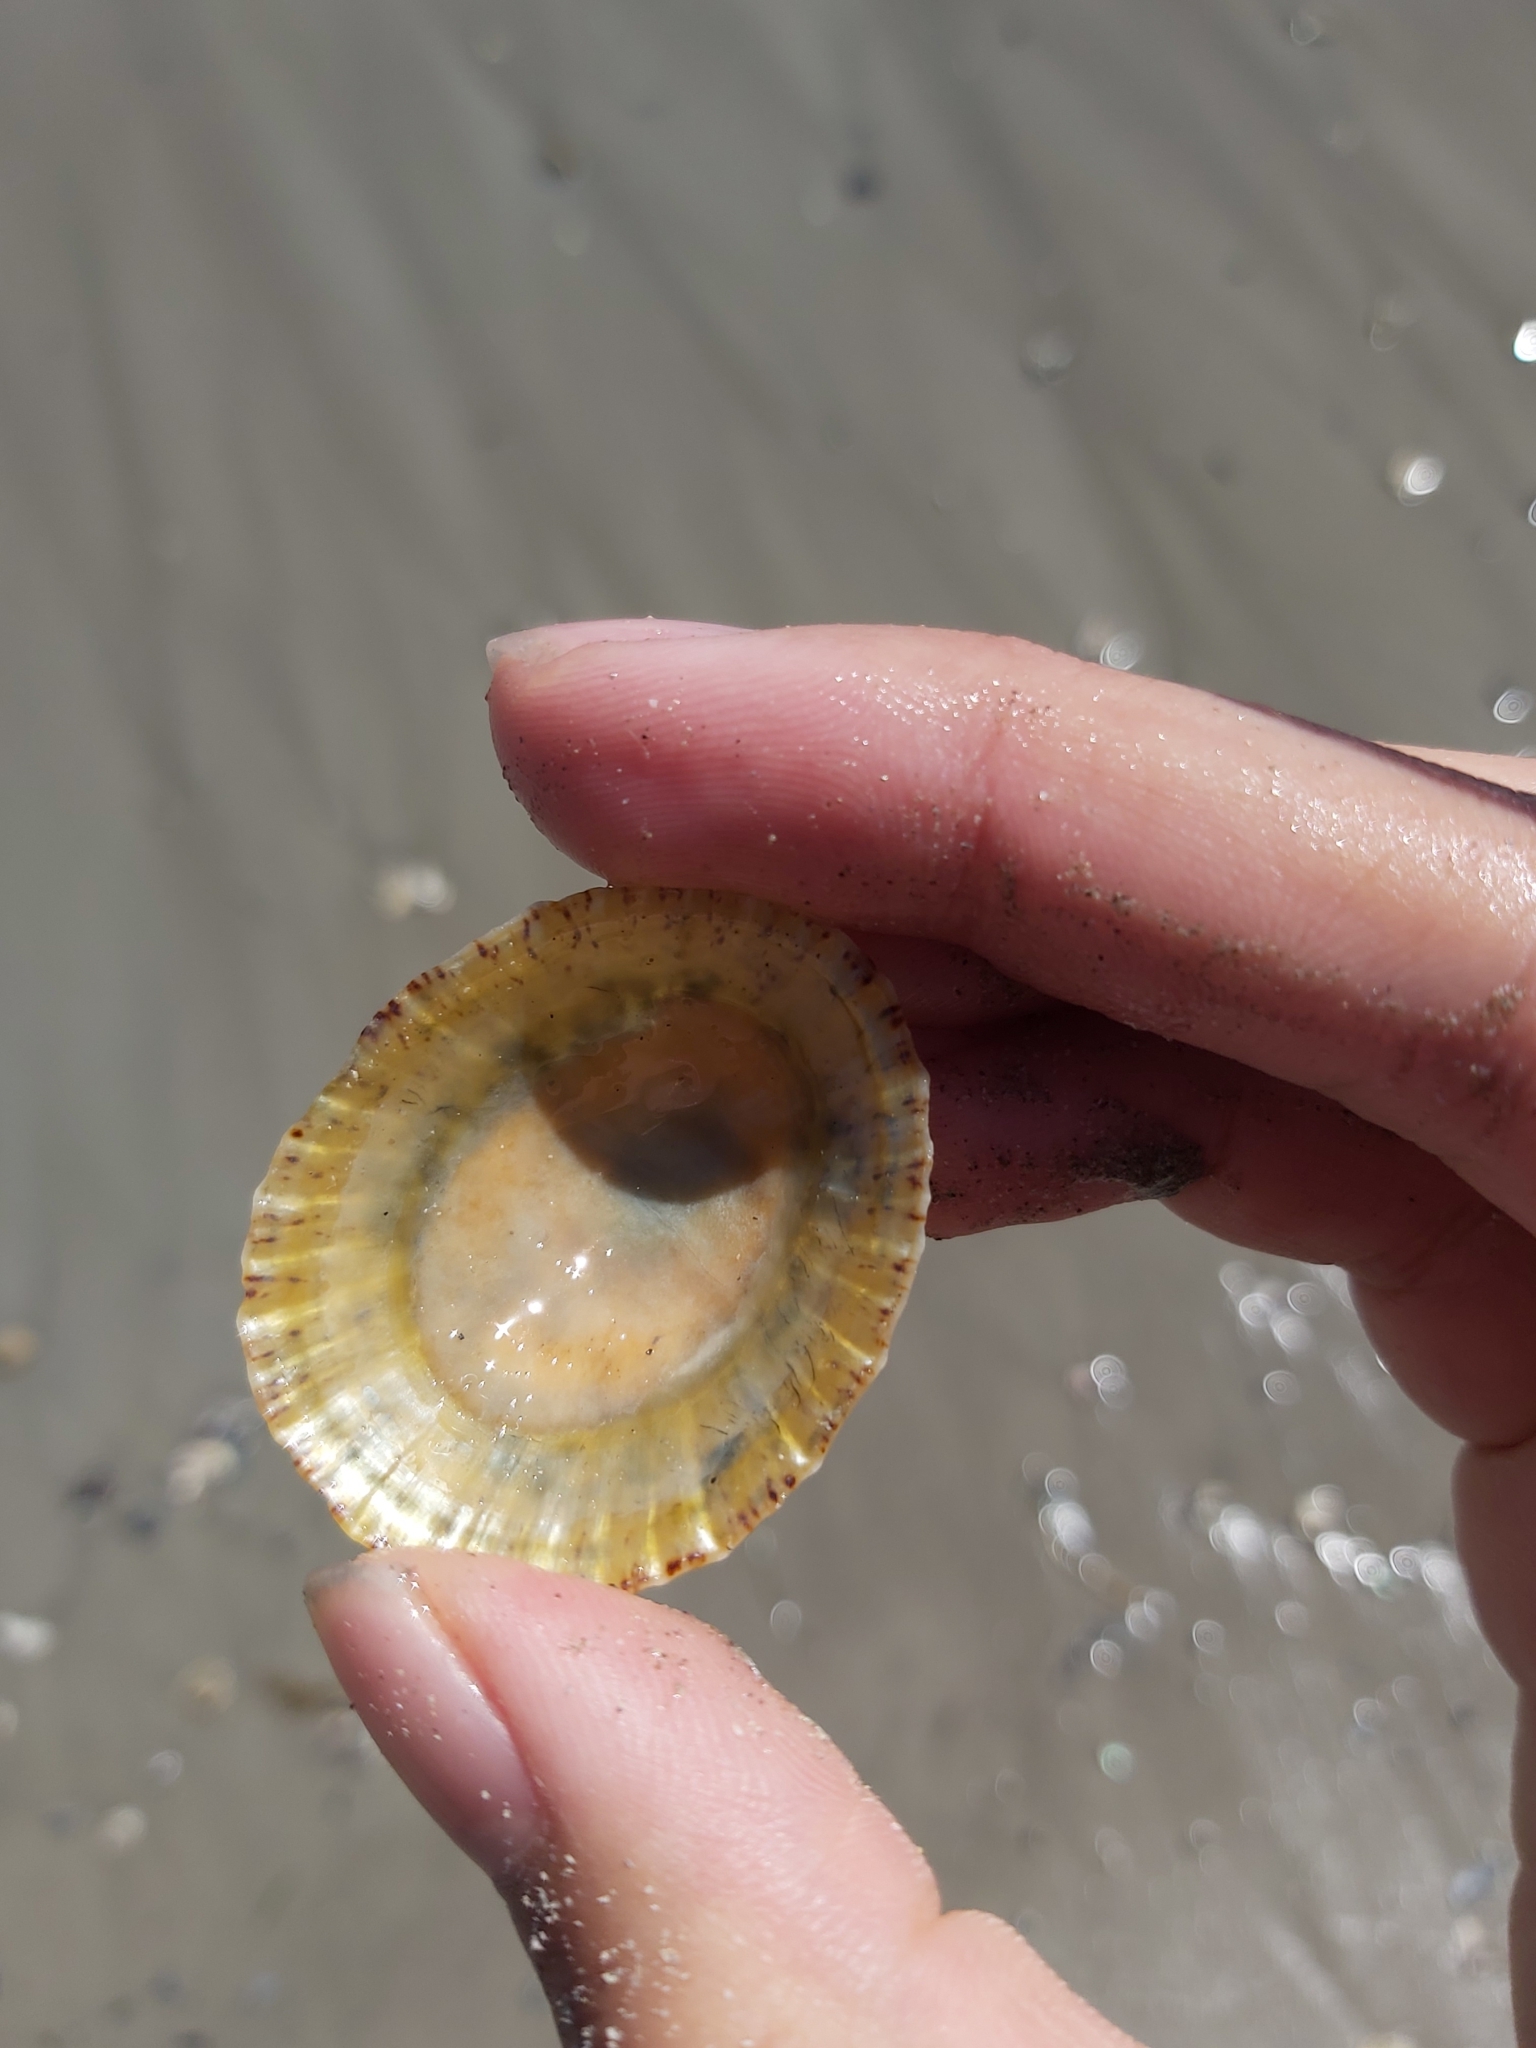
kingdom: Animalia
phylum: Mollusca
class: Gastropoda
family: Nacellidae
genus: Cellana
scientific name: Cellana tramoserica
